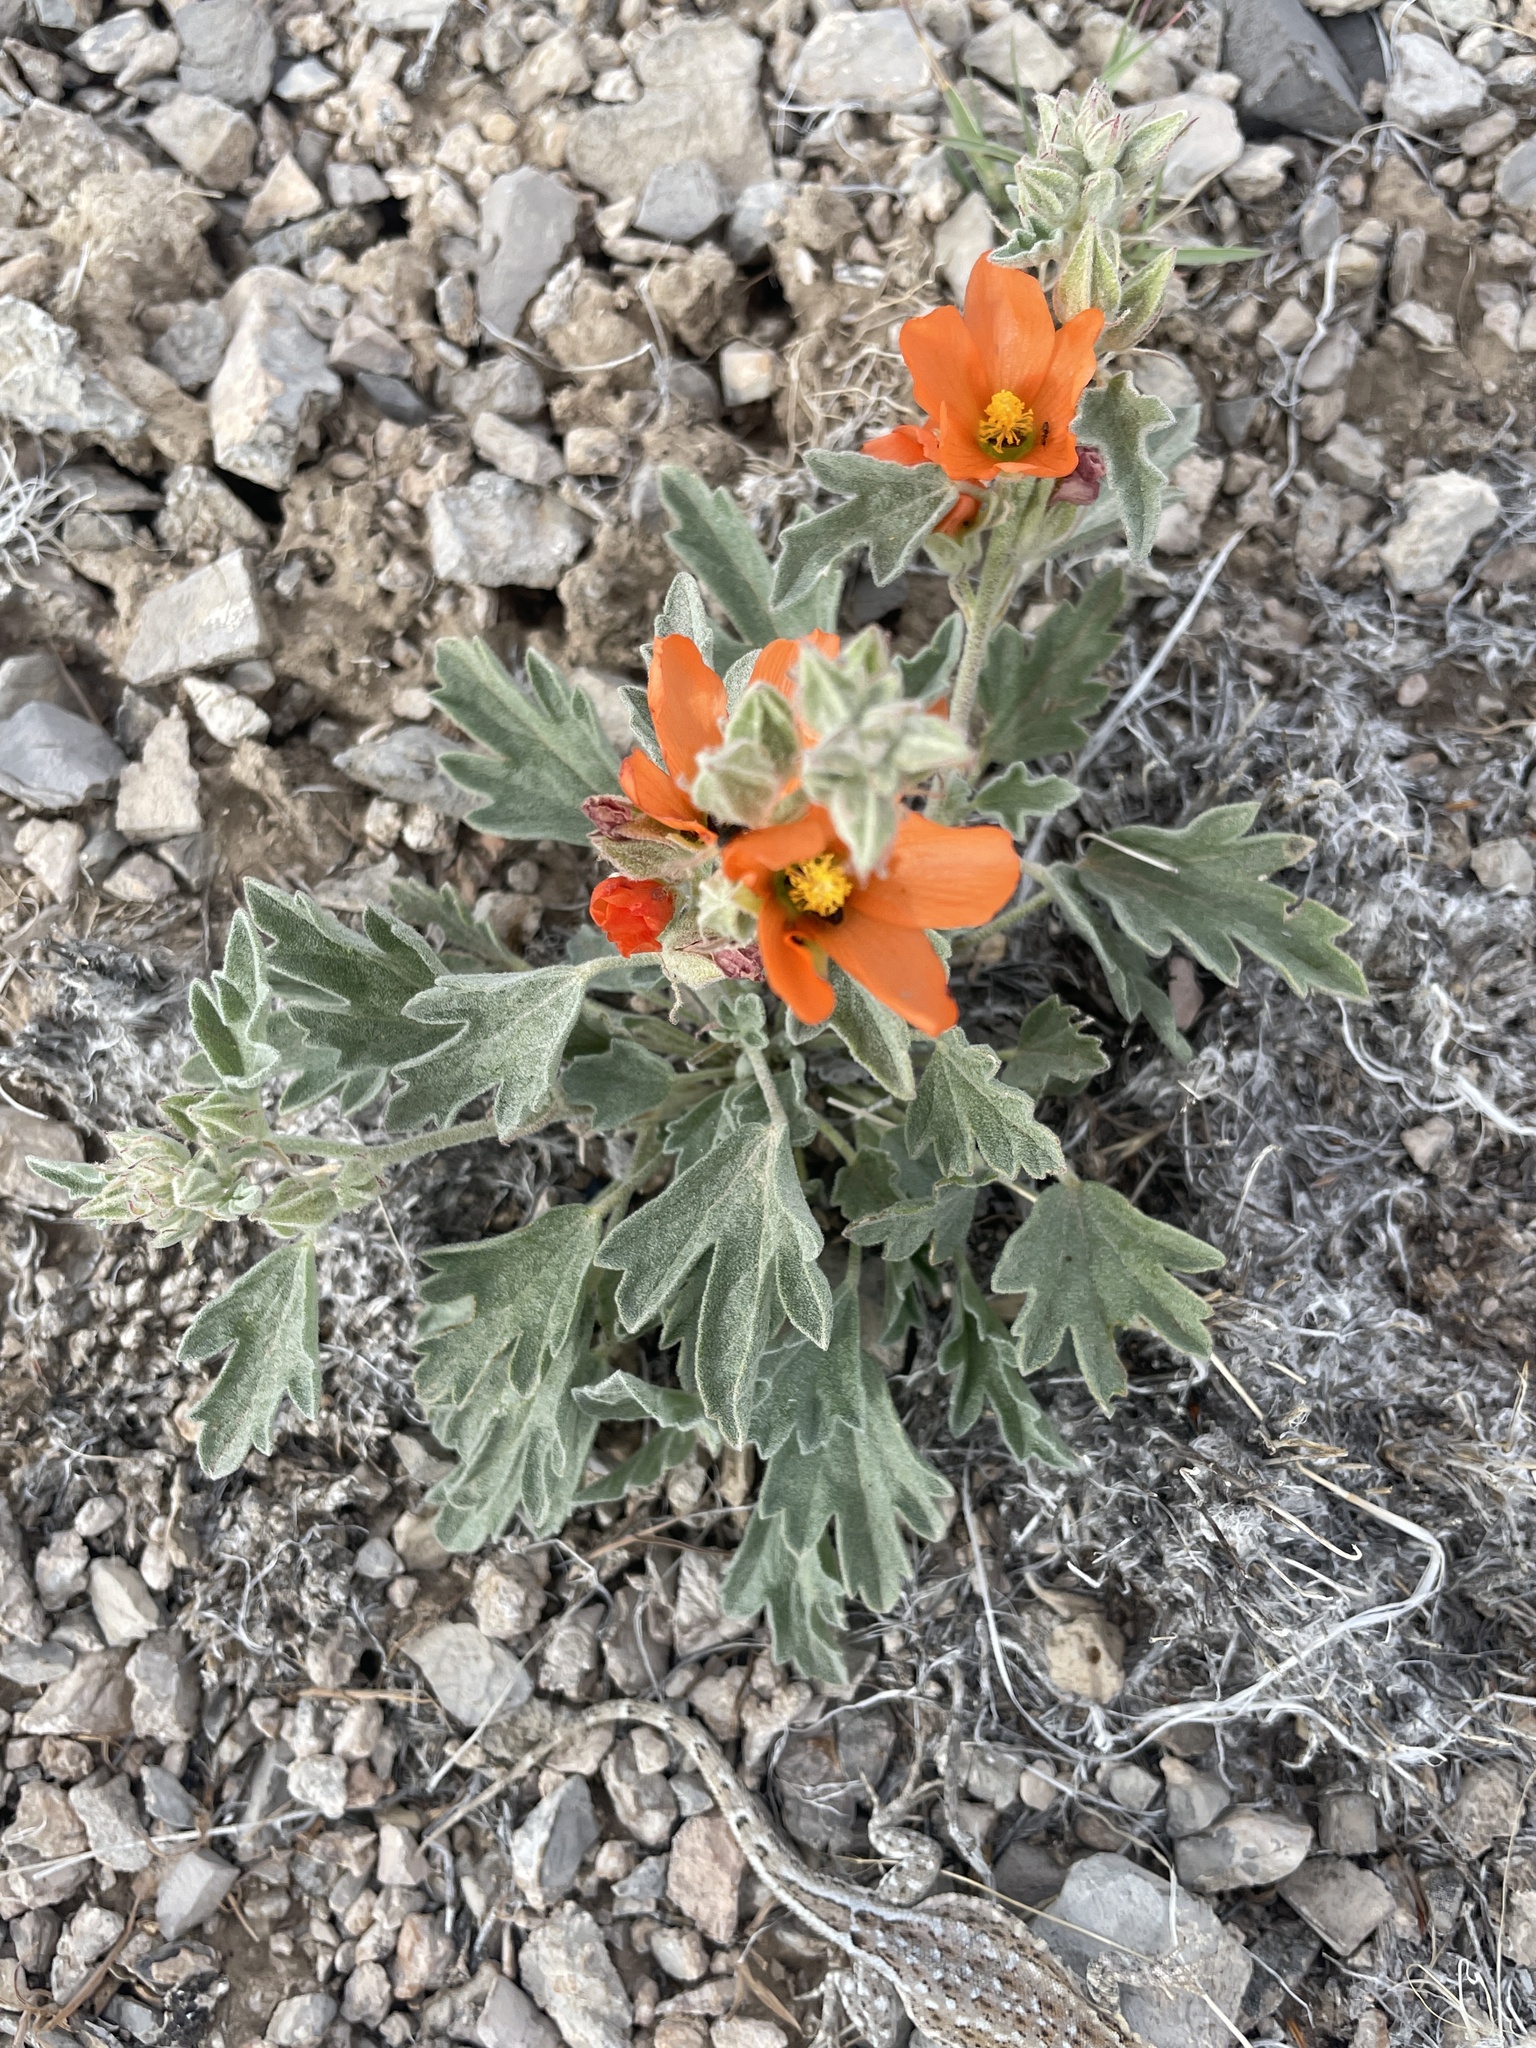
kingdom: Plantae
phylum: Tracheophyta
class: Magnoliopsida
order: Malvales
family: Malvaceae
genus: Sphaeralcea
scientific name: Sphaeralcea caespitosa
